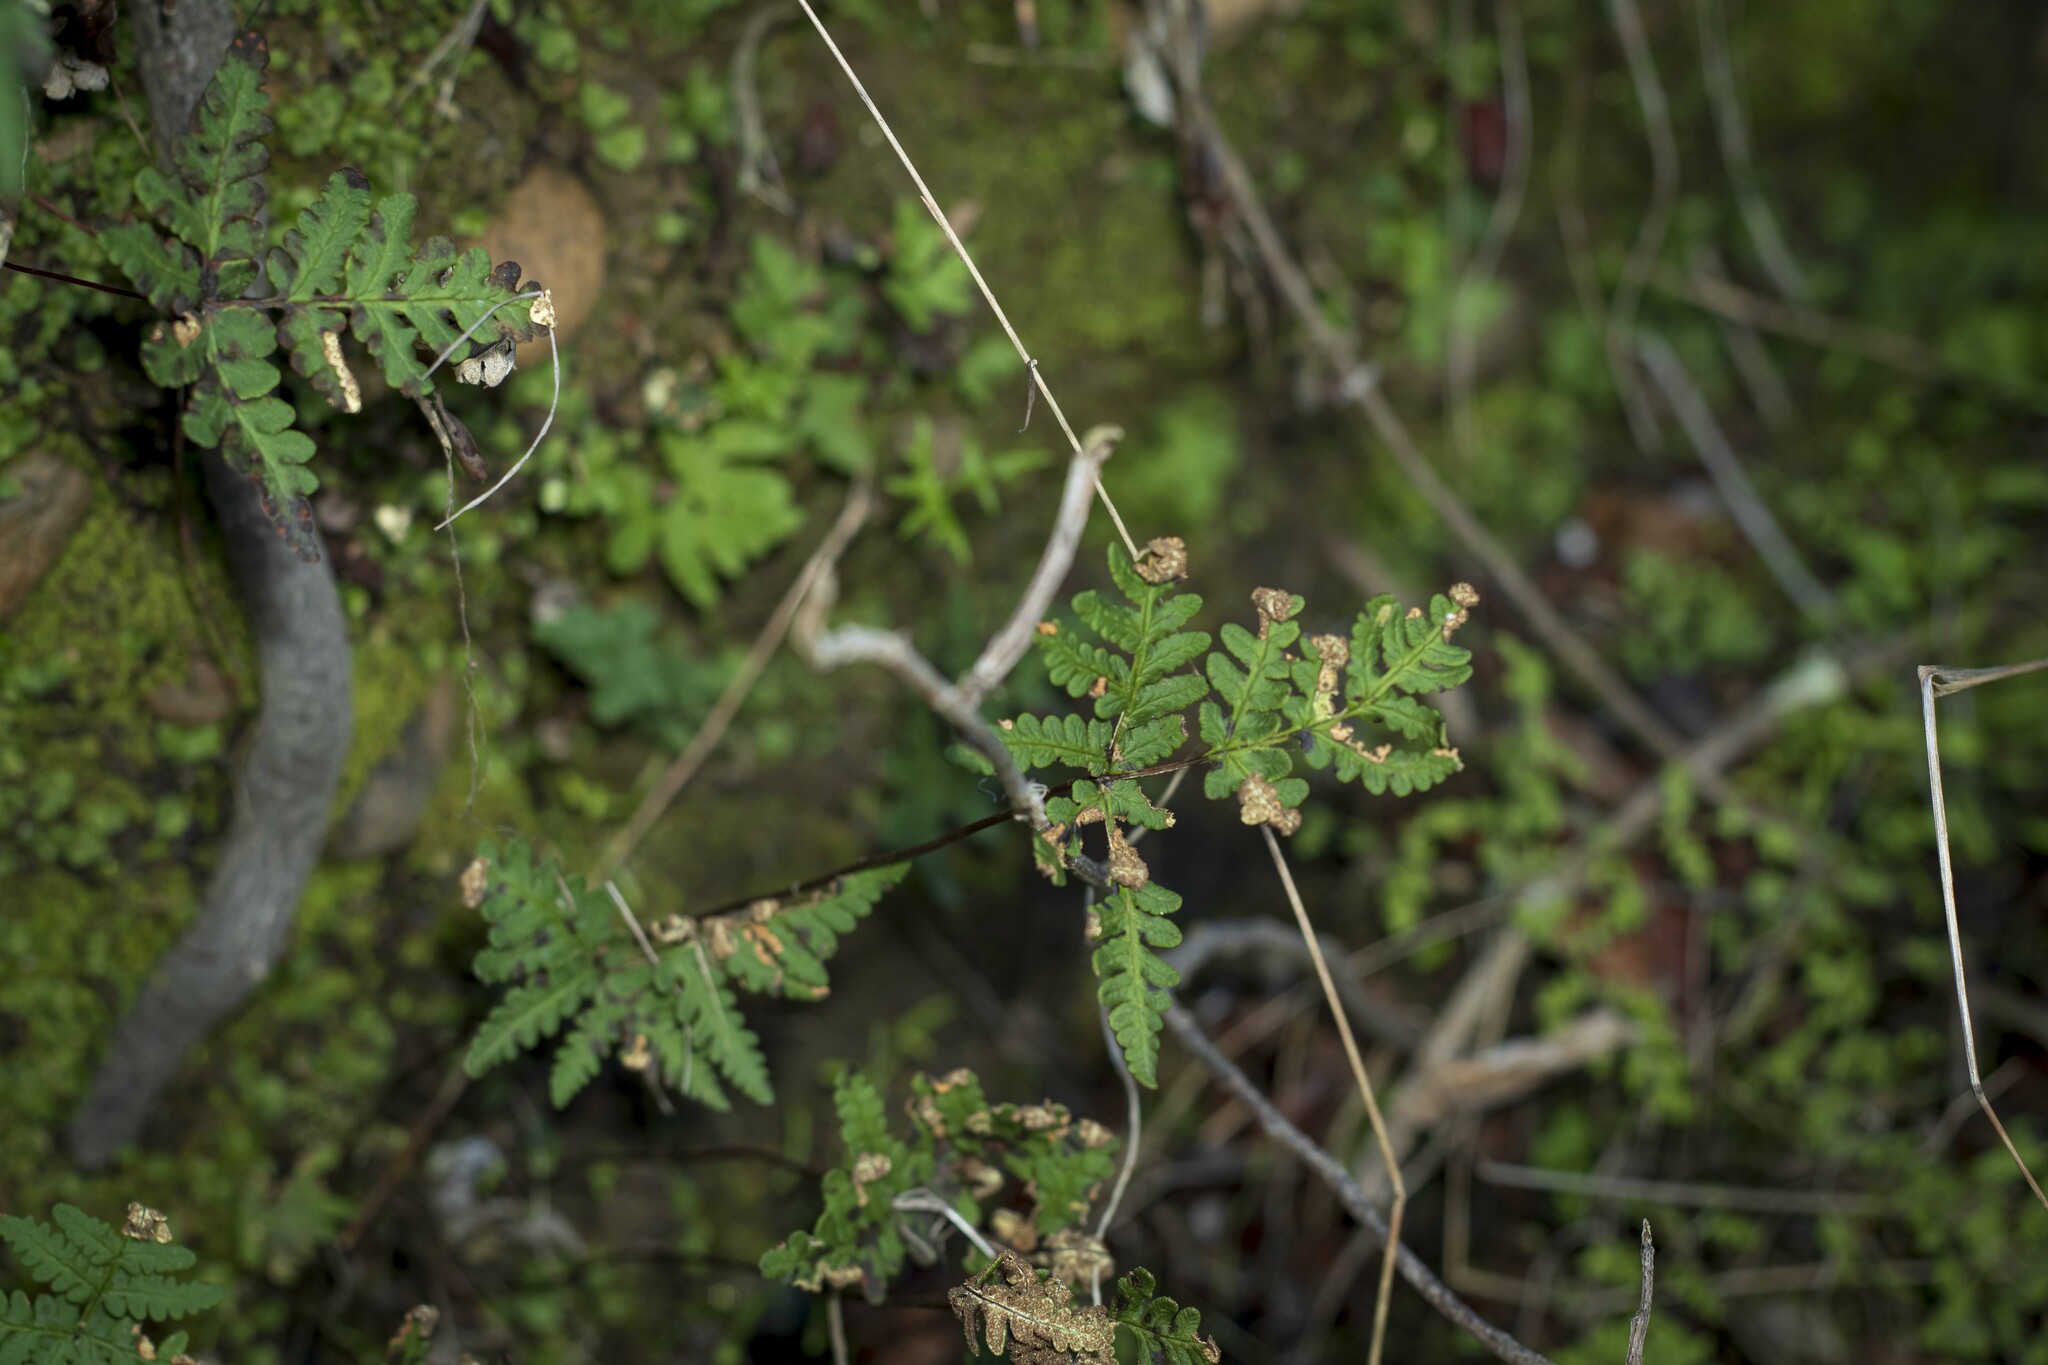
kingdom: Plantae
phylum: Tracheophyta
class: Polypodiopsida
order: Polypodiales
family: Pteridaceae
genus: Pentagramma
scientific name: Pentagramma triangularis
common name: Gold fern
